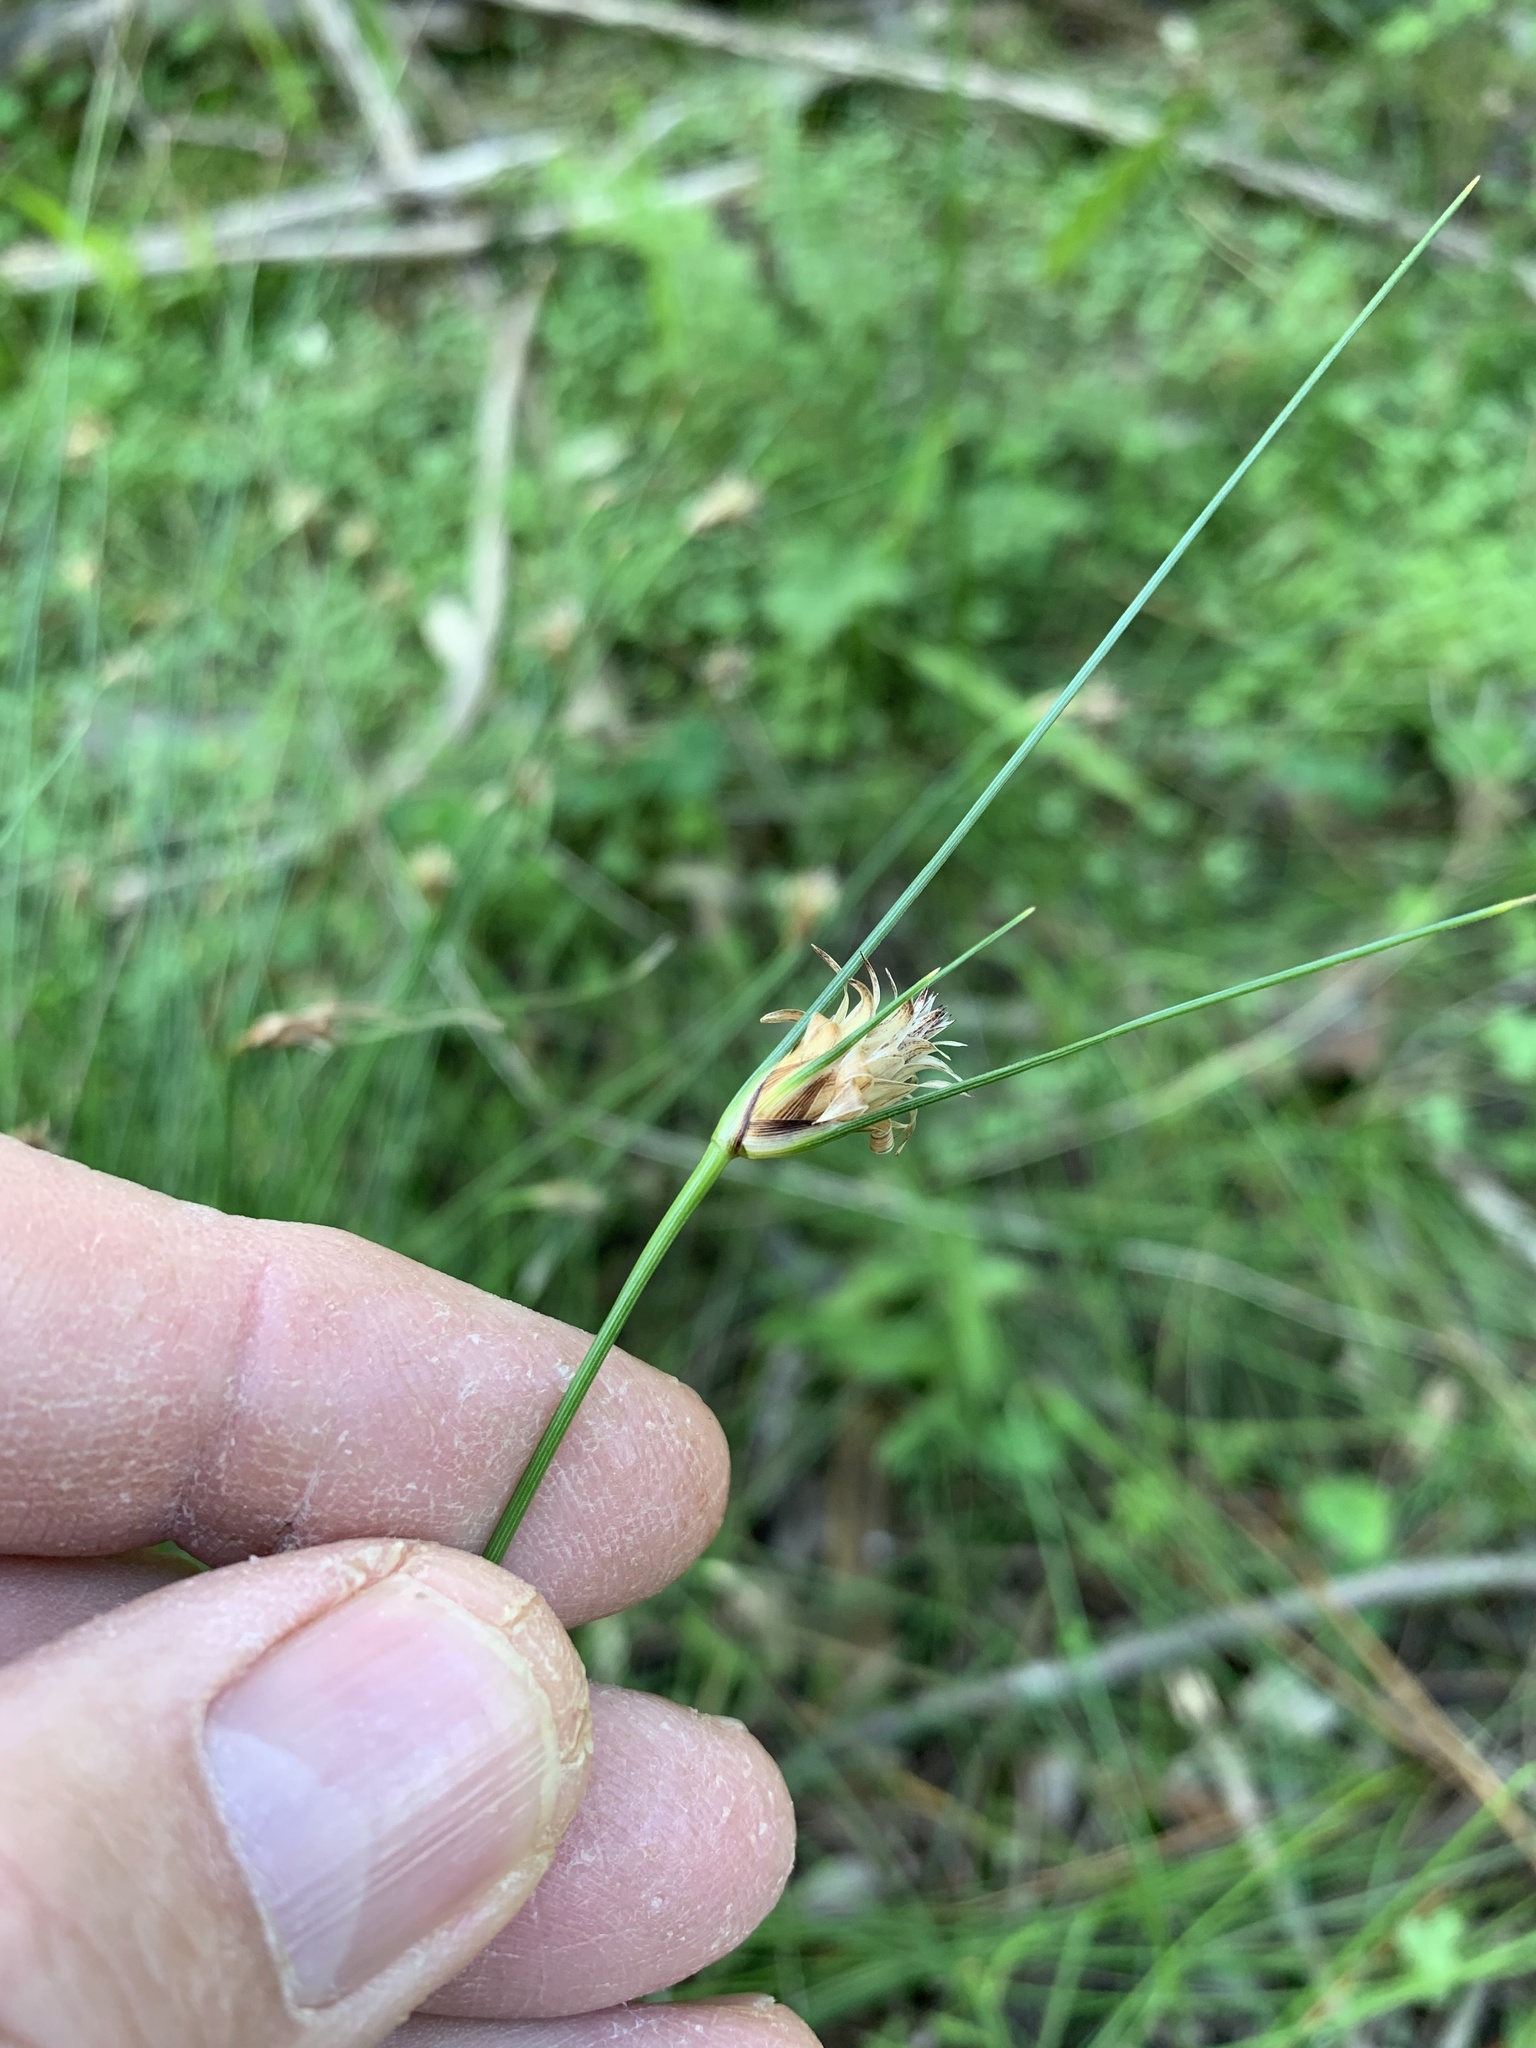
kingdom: Plantae
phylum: Tracheophyta
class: Liliopsida
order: Poales
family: Cyperaceae
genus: Ficinia
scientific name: Ficinia nigrescens
